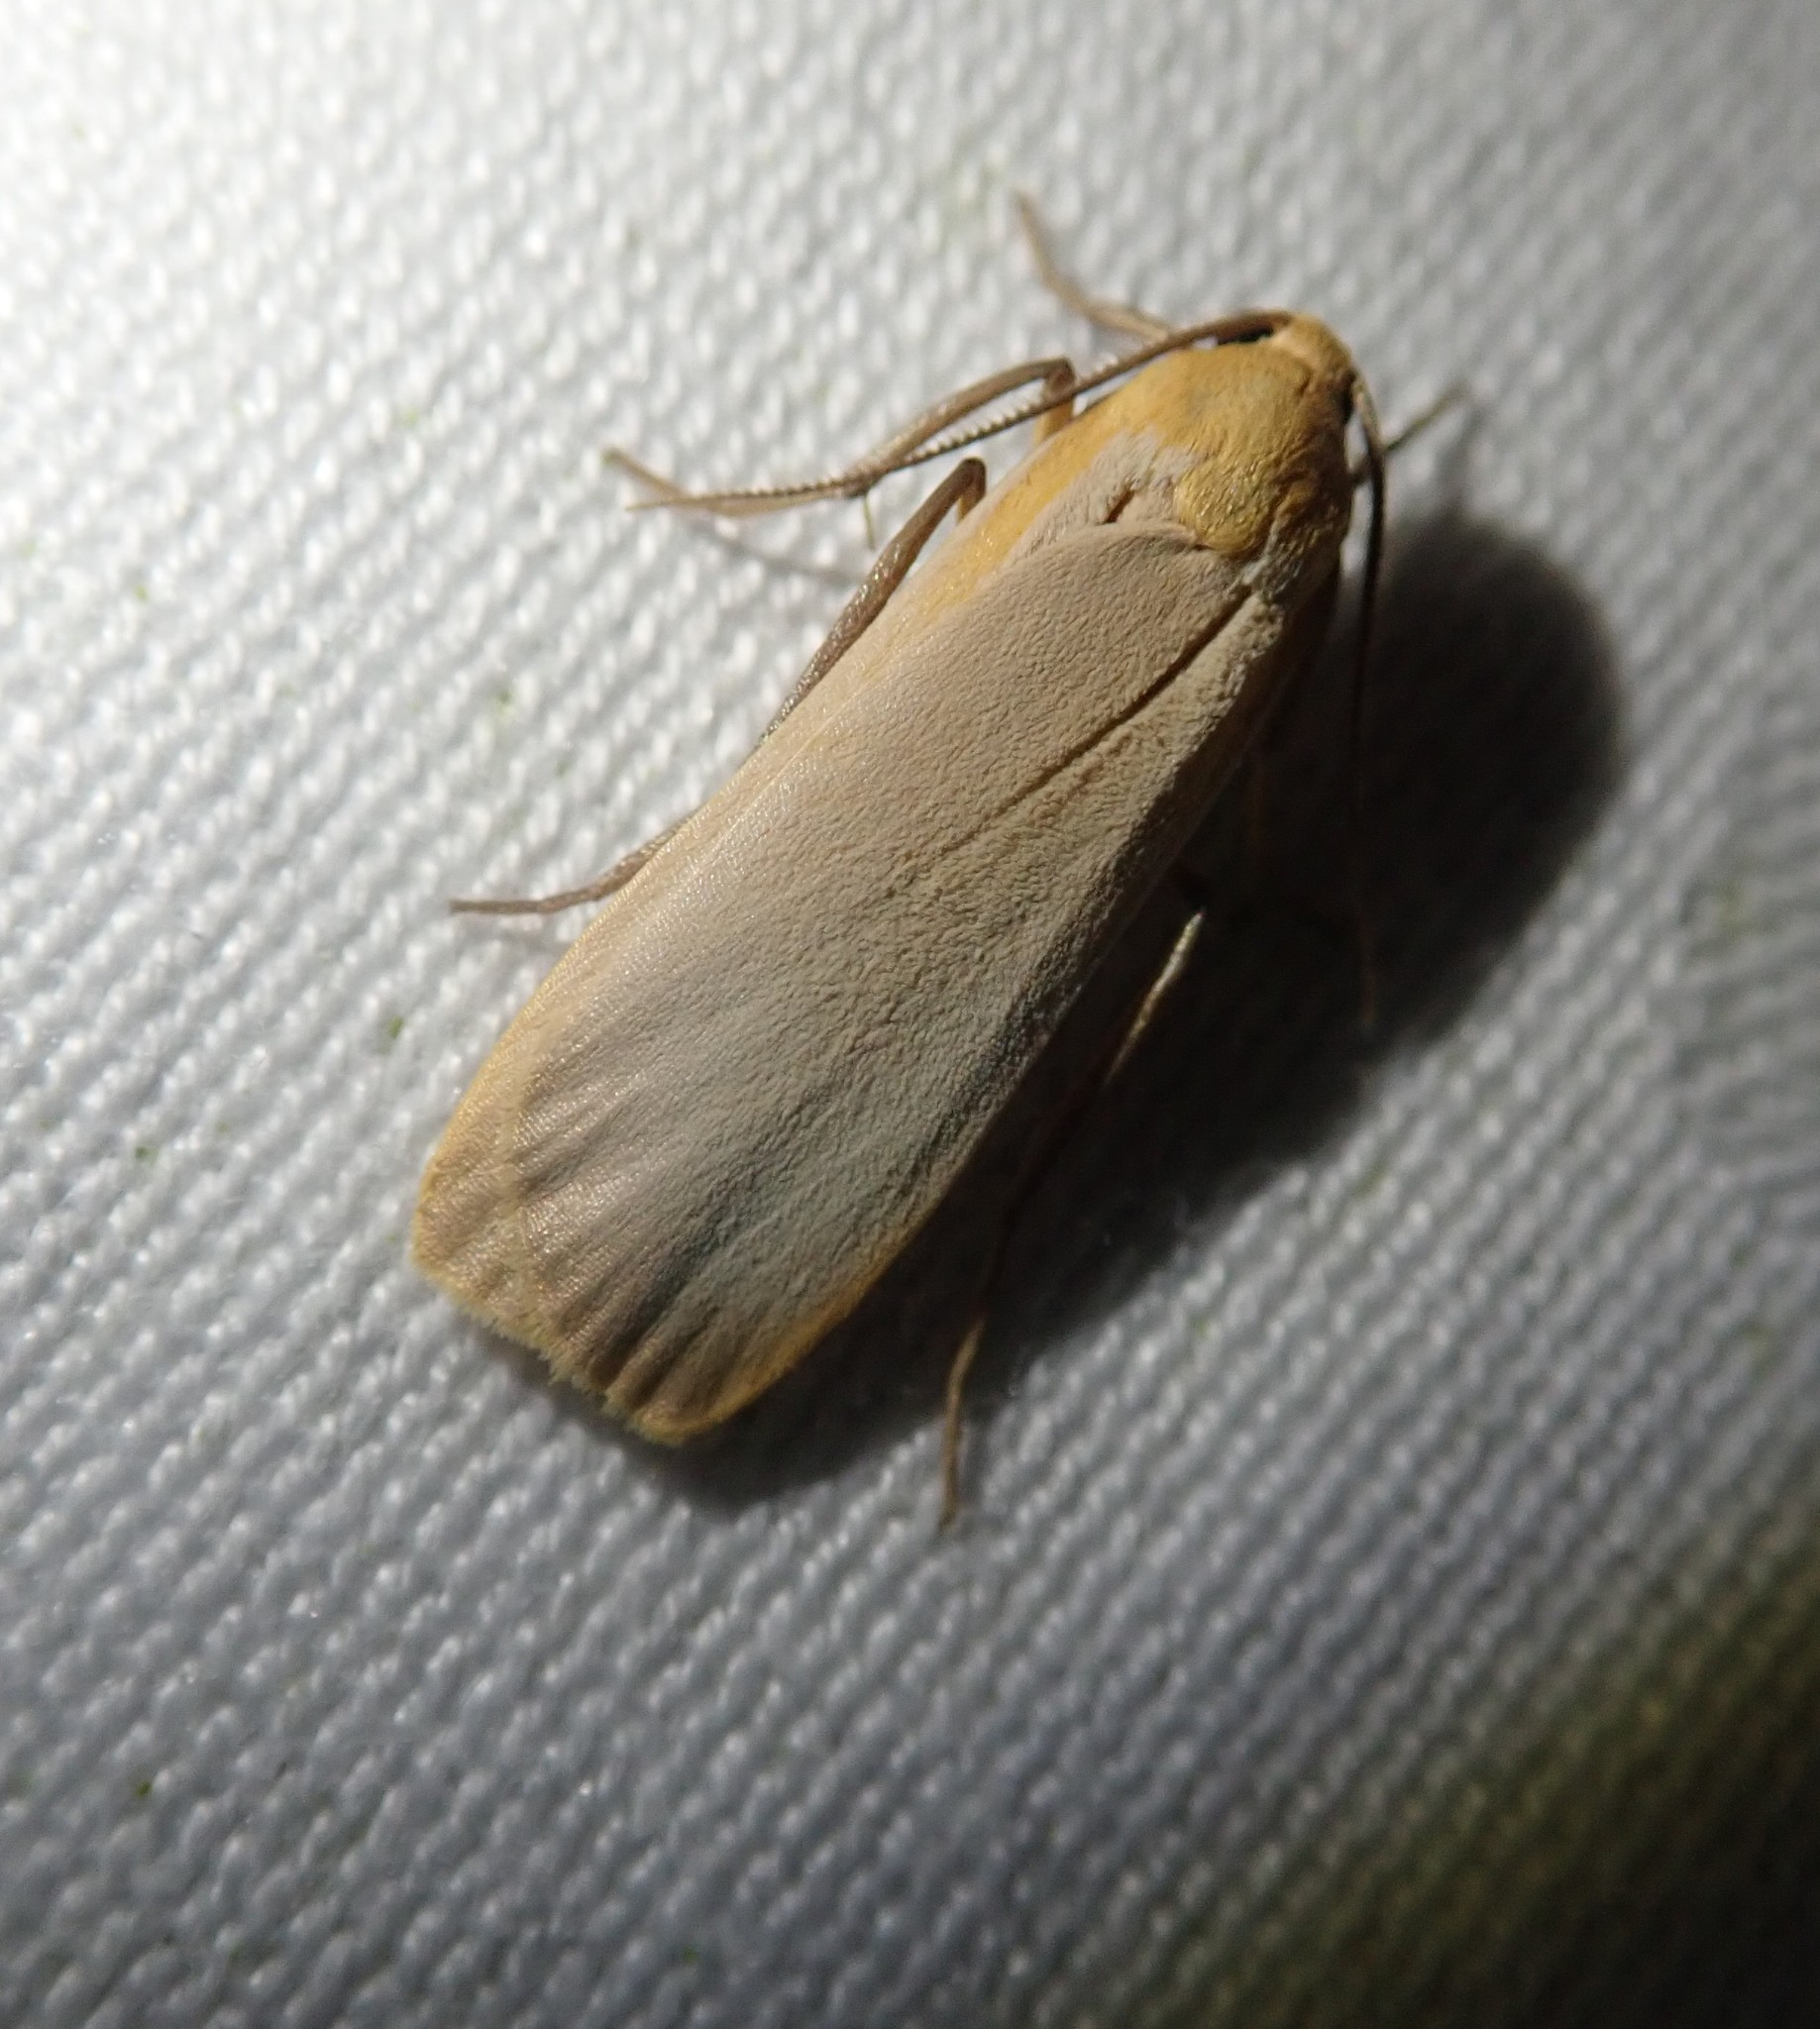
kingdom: Animalia
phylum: Arthropoda
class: Insecta
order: Lepidoptera
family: Erebidae
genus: Katha
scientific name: Katha depressa
